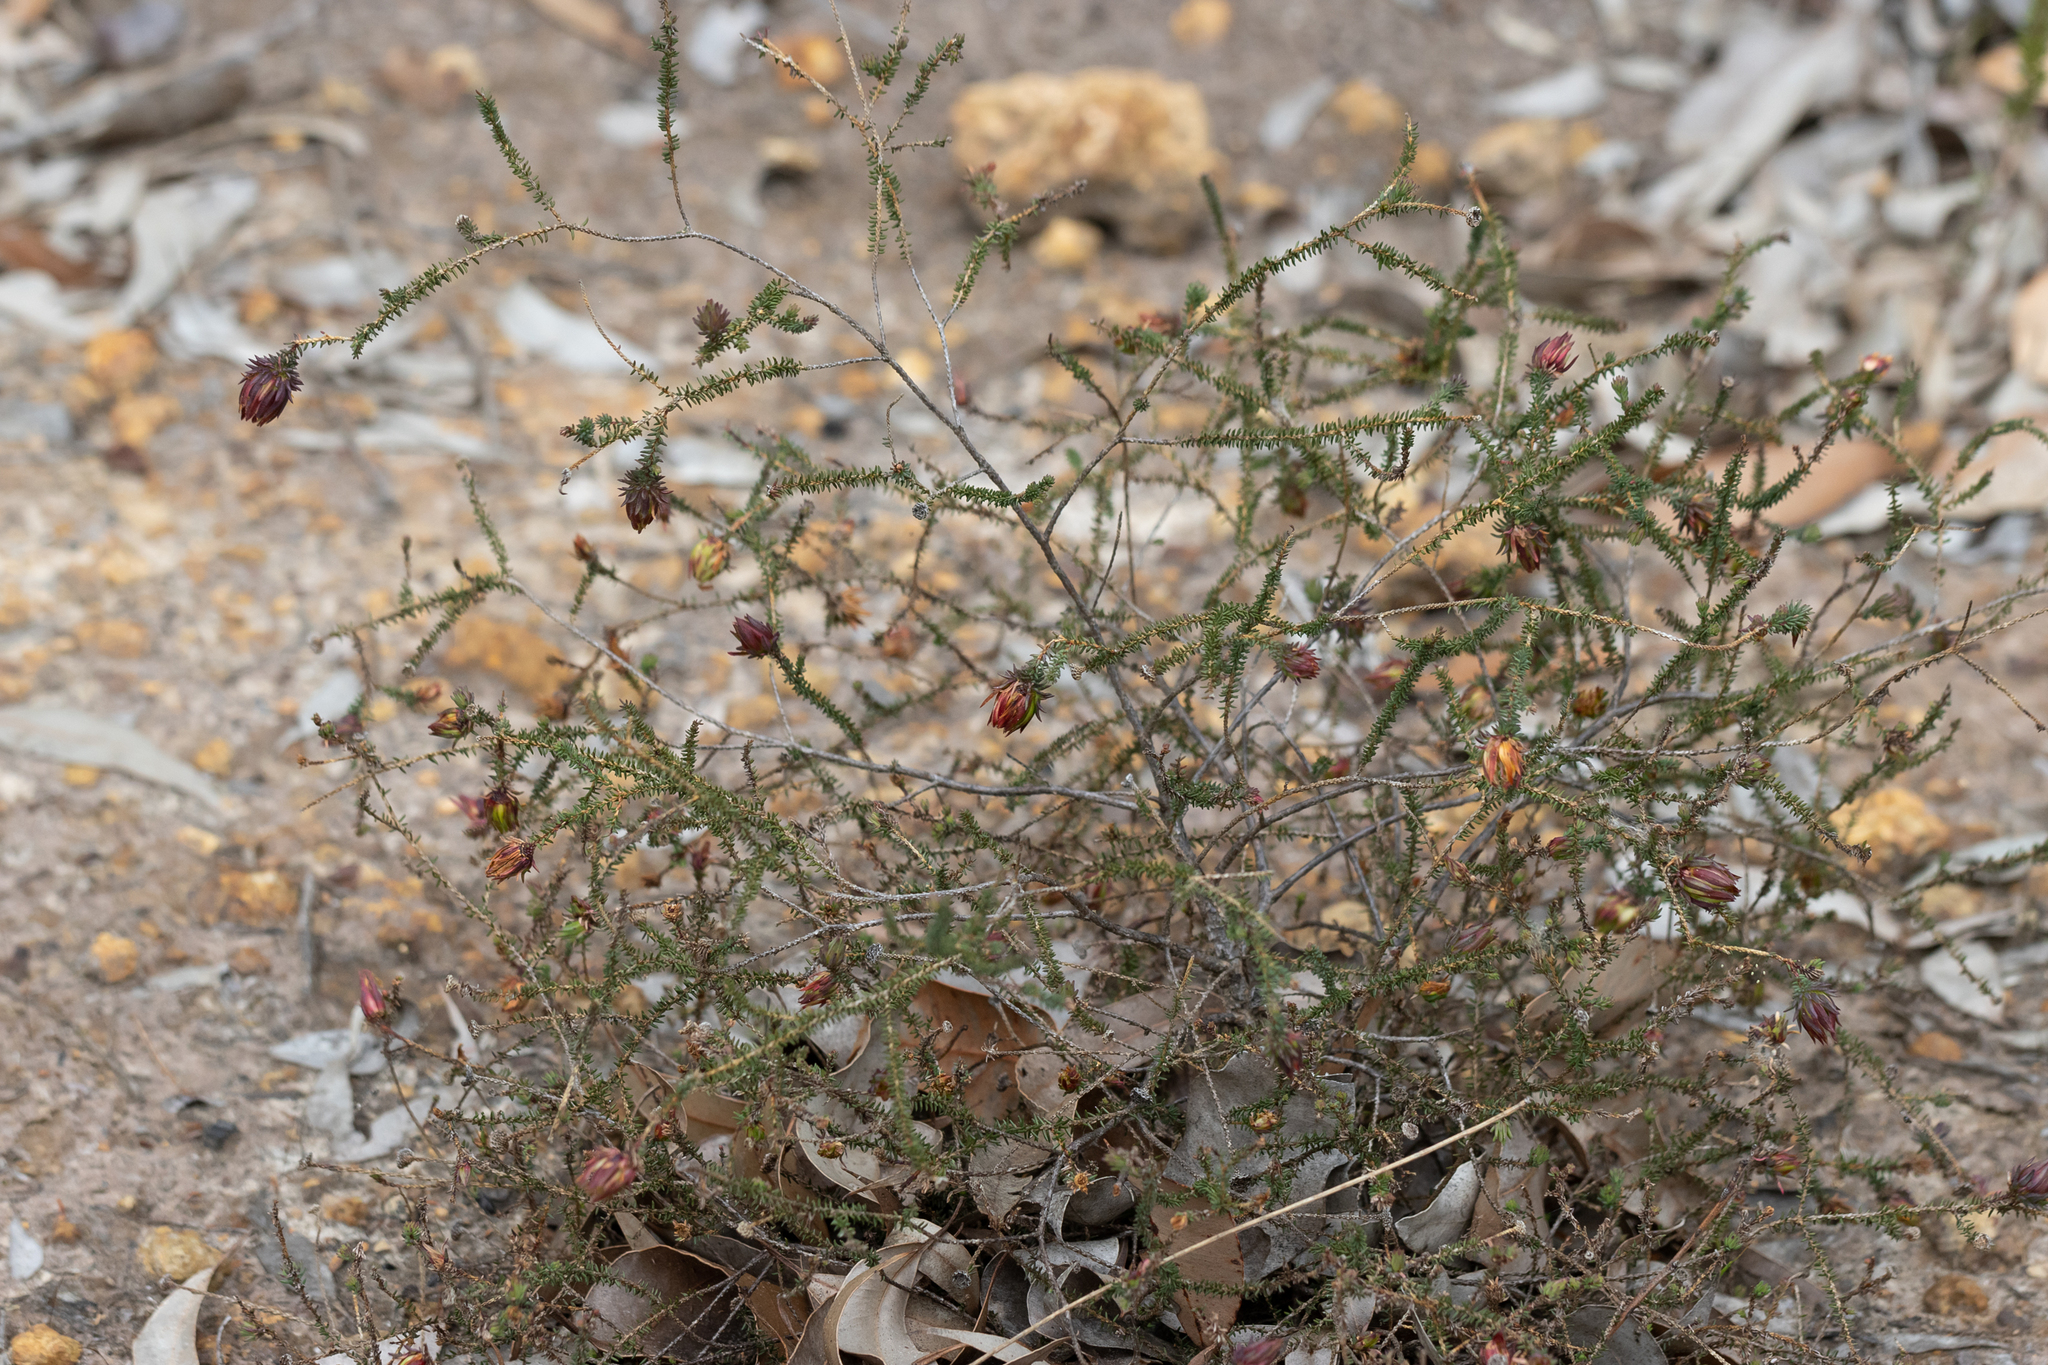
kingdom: Plantae
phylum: Tracheophyta
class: Magnoliopsida
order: Myrtales
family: Myrtaceae
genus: Darwinia
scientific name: Darwinia oederoides
